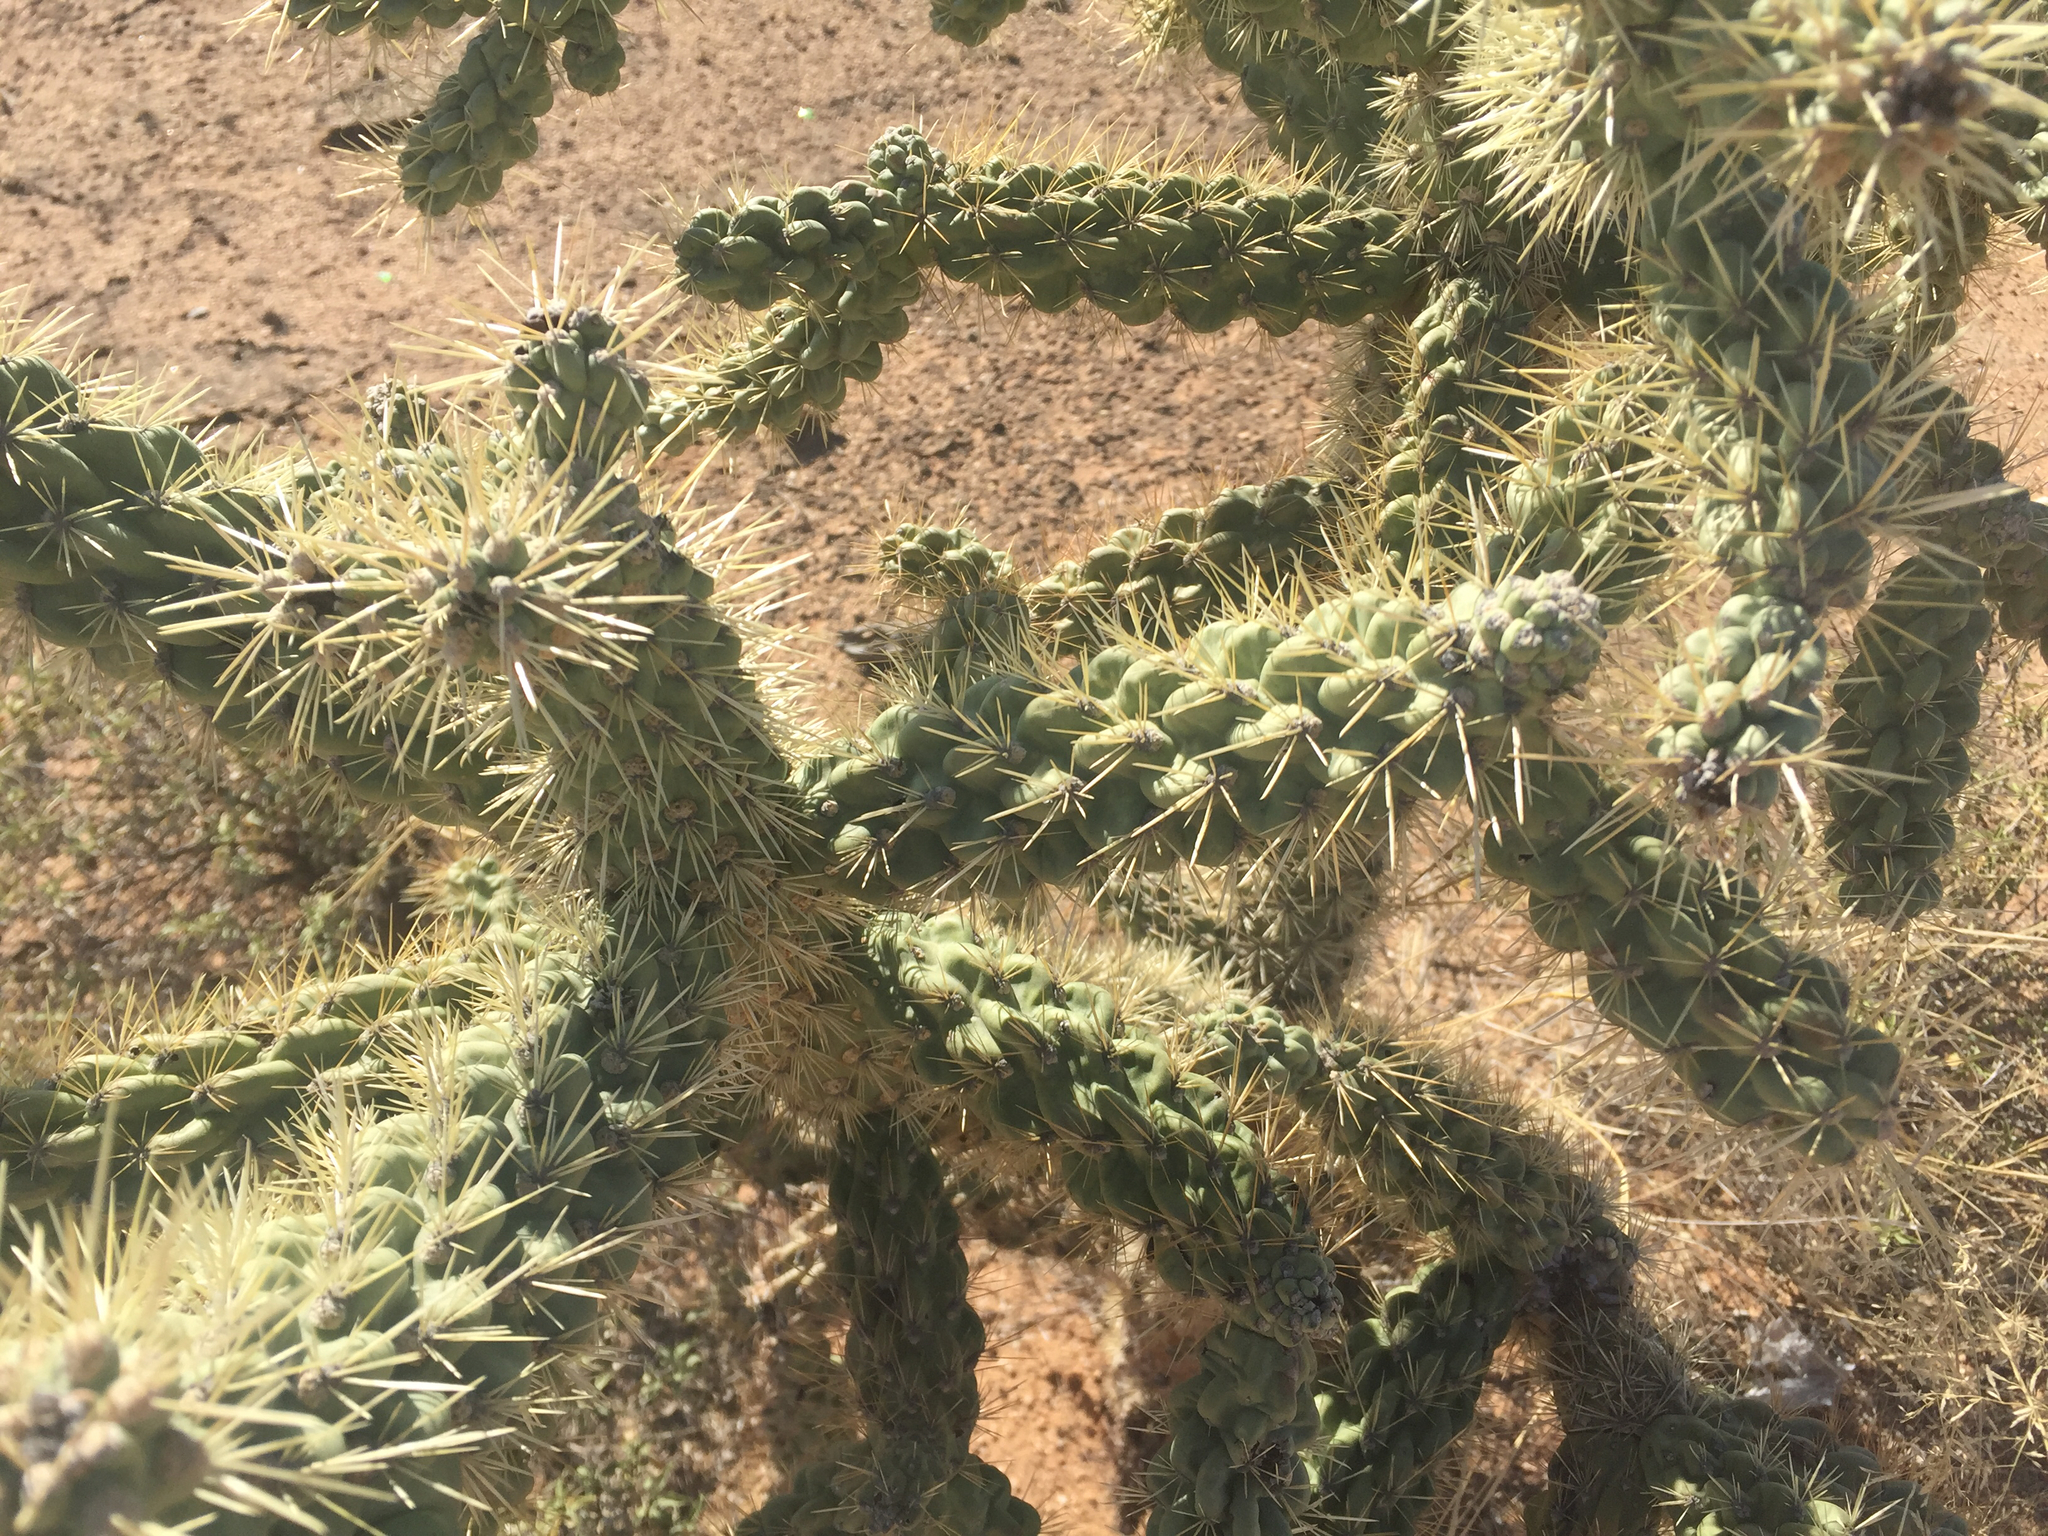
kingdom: Plantae
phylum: Tracheophyta
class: Magnoliopsida
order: Caryophyllales
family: Cactaceae
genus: Cylindropuntia
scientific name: Cylindropuntia fulgida
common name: Jumping cholla
